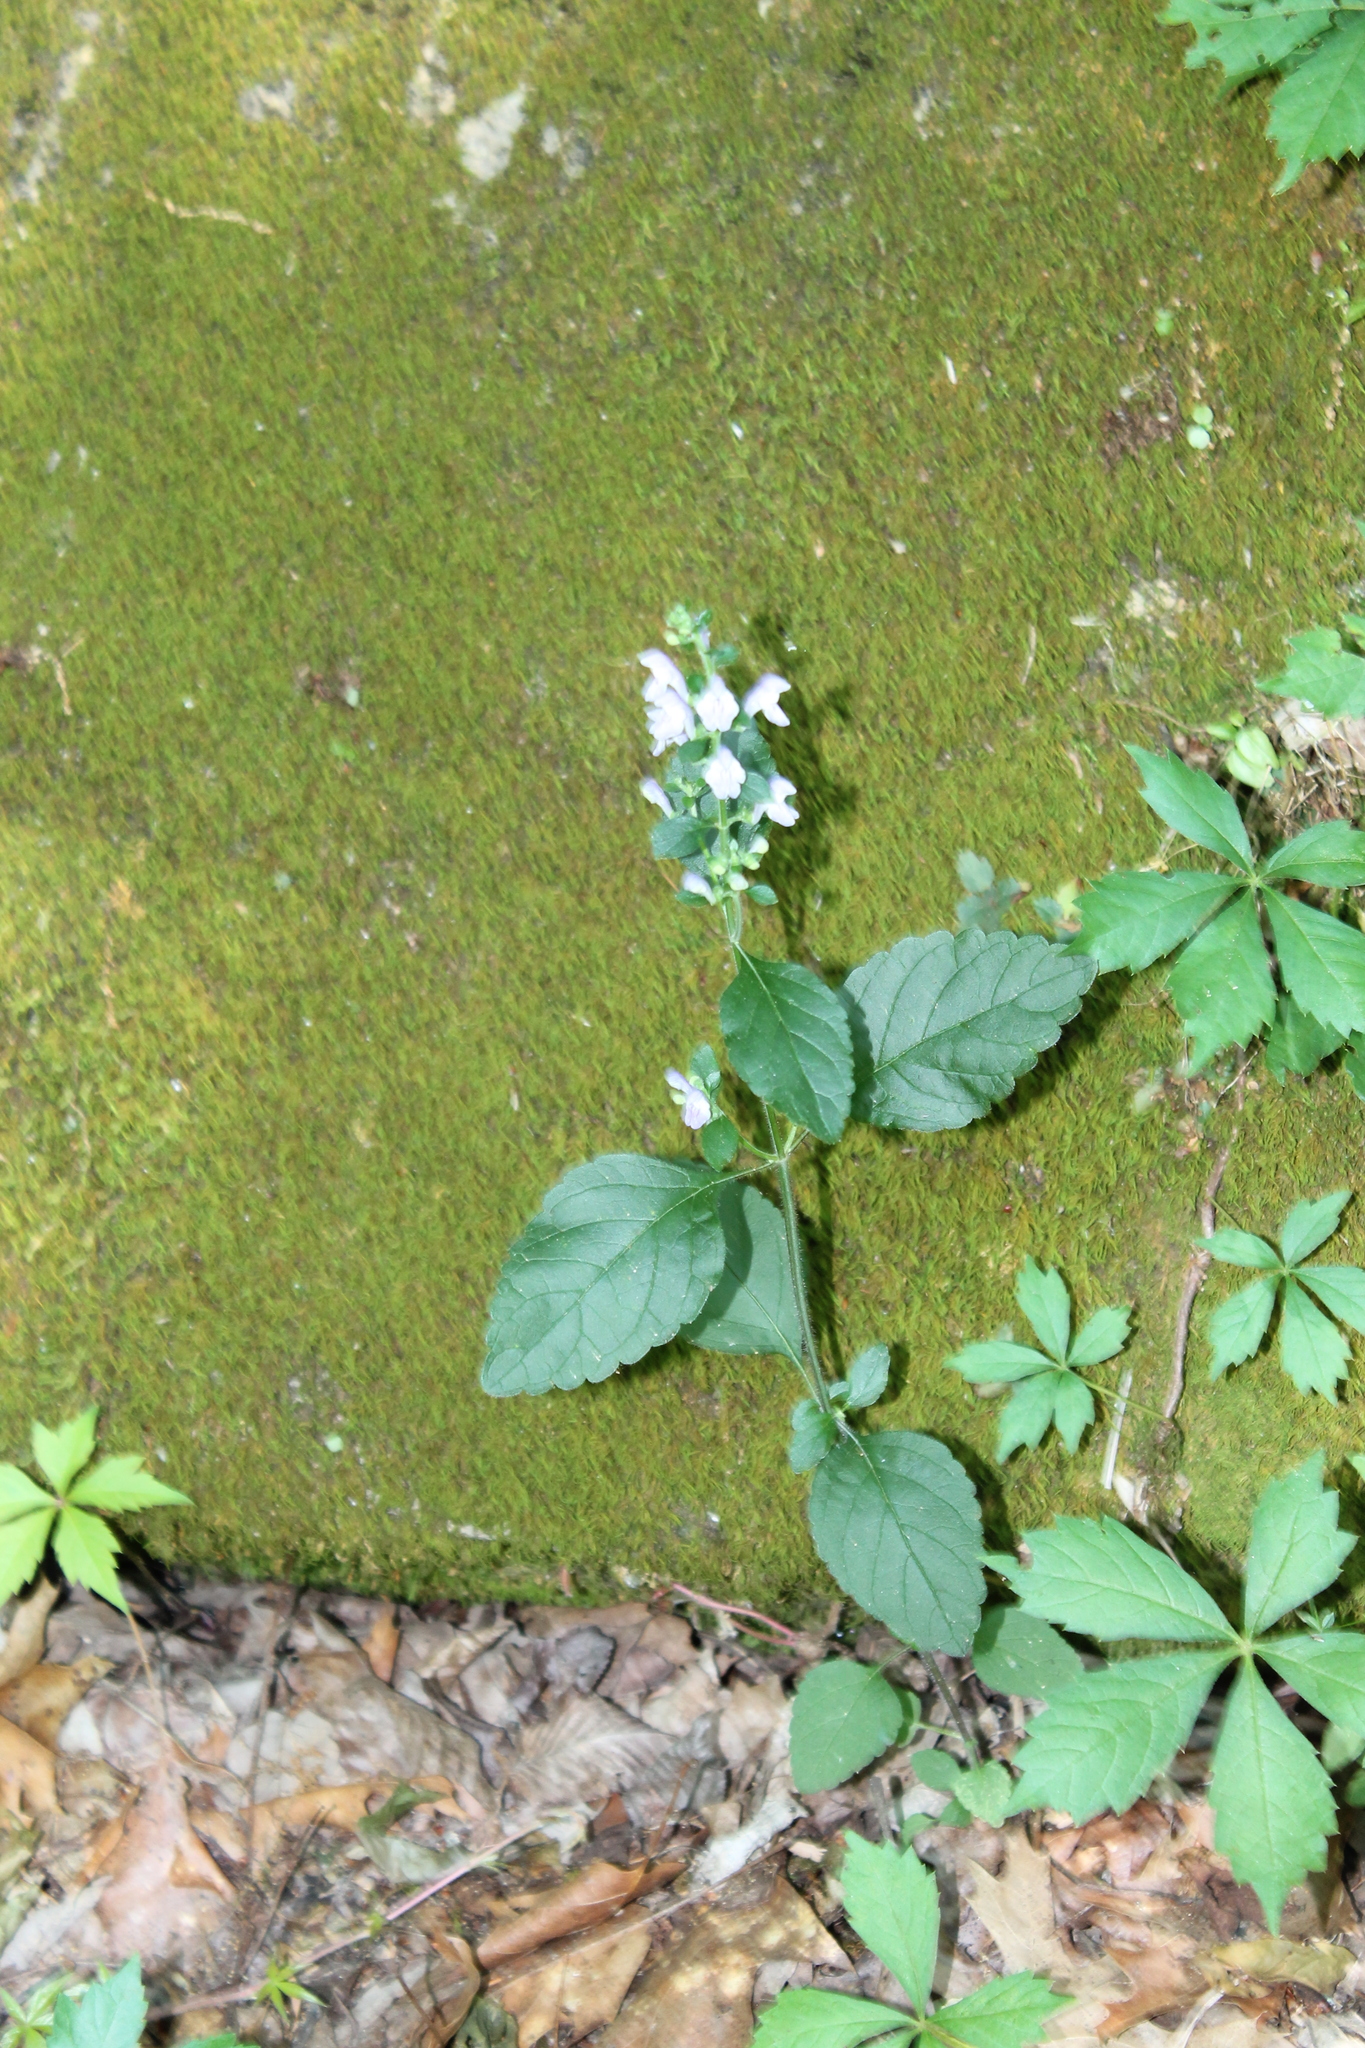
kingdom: Plantae
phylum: Tracheophyta
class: Magnoliopsida
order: Lamiales
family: Lamiaceae
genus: Scutellaria
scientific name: Scutellaria elliptica
